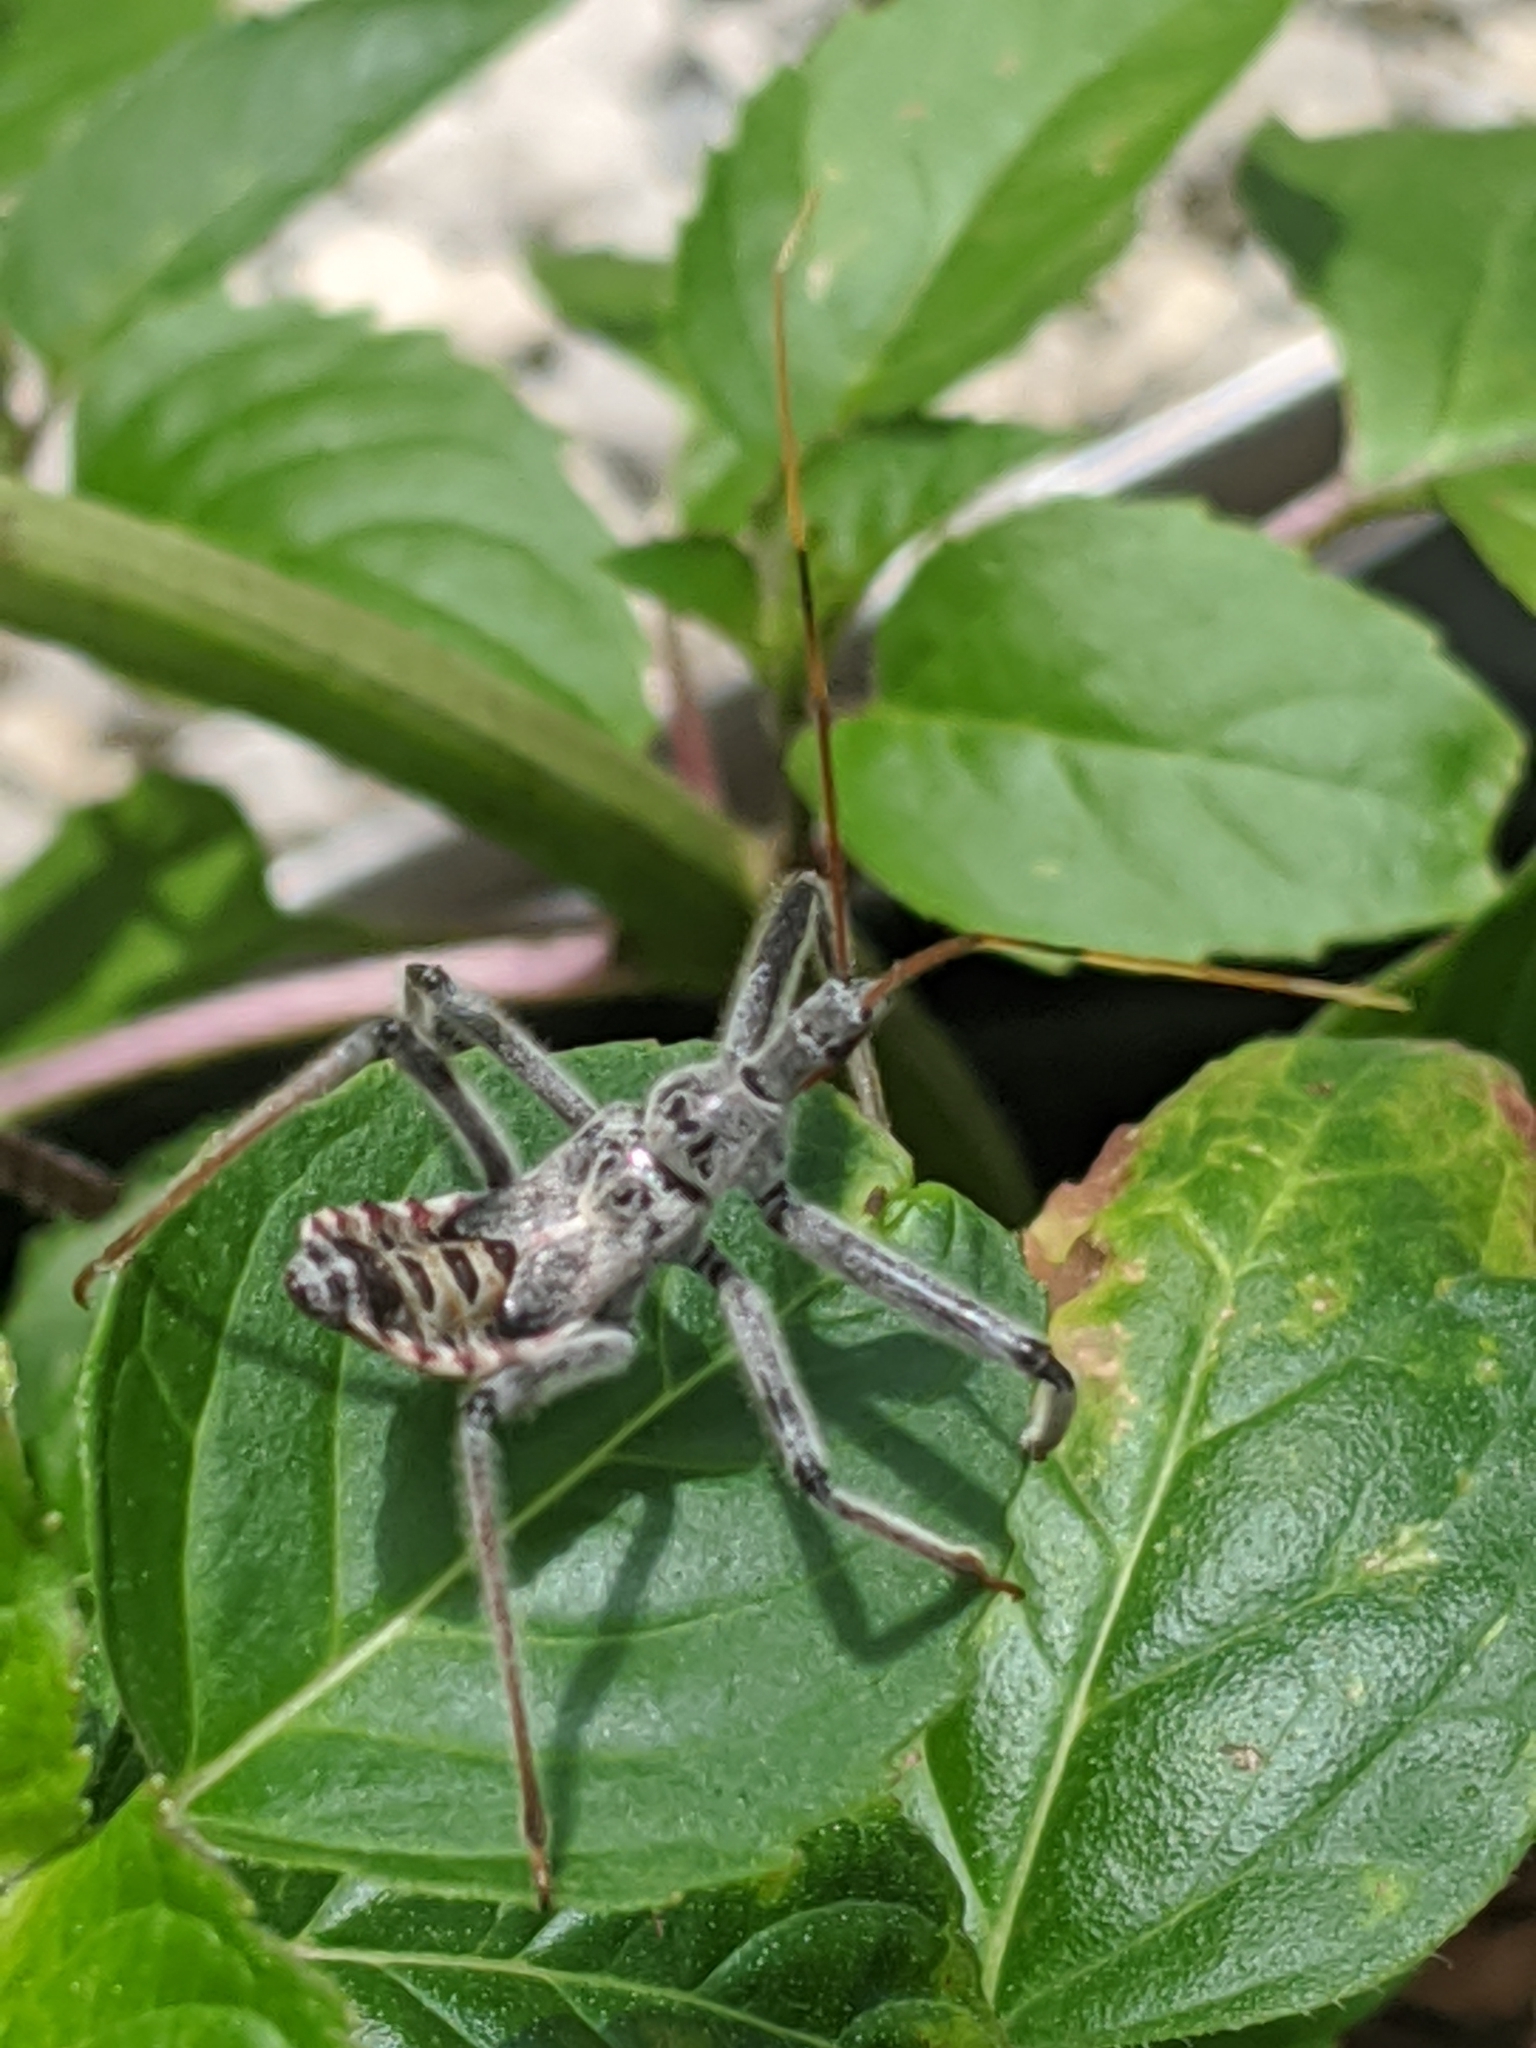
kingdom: Animalia
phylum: Arthropoda
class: Insecta
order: Hemiptera
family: Reduviidae
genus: Arilus
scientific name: Arilus cristatus
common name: North american wheel bug
